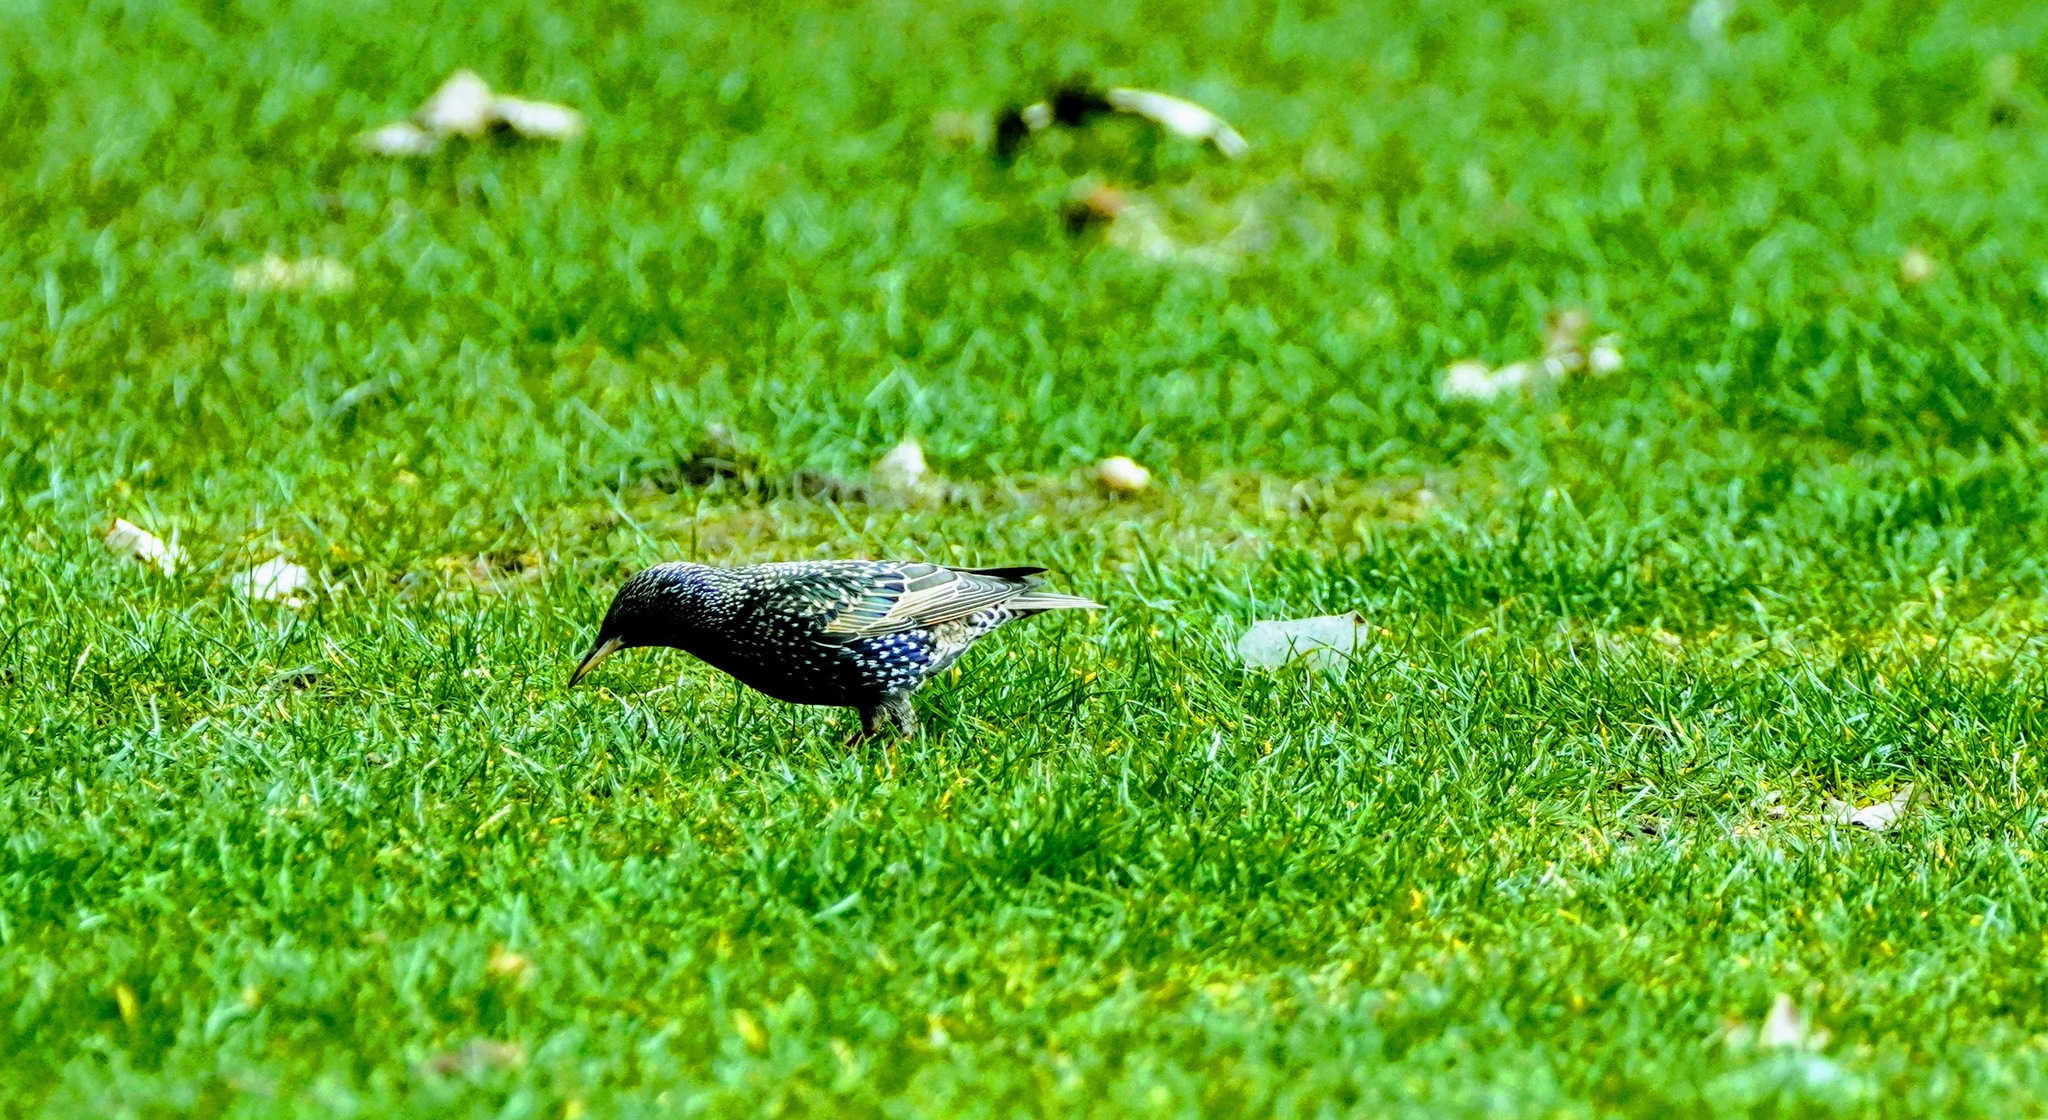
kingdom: Animalia
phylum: Chordata
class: Aves
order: Passeriformes
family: Sturnidae
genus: Sturnus
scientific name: Sturnus vulgaris
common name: Common starling
